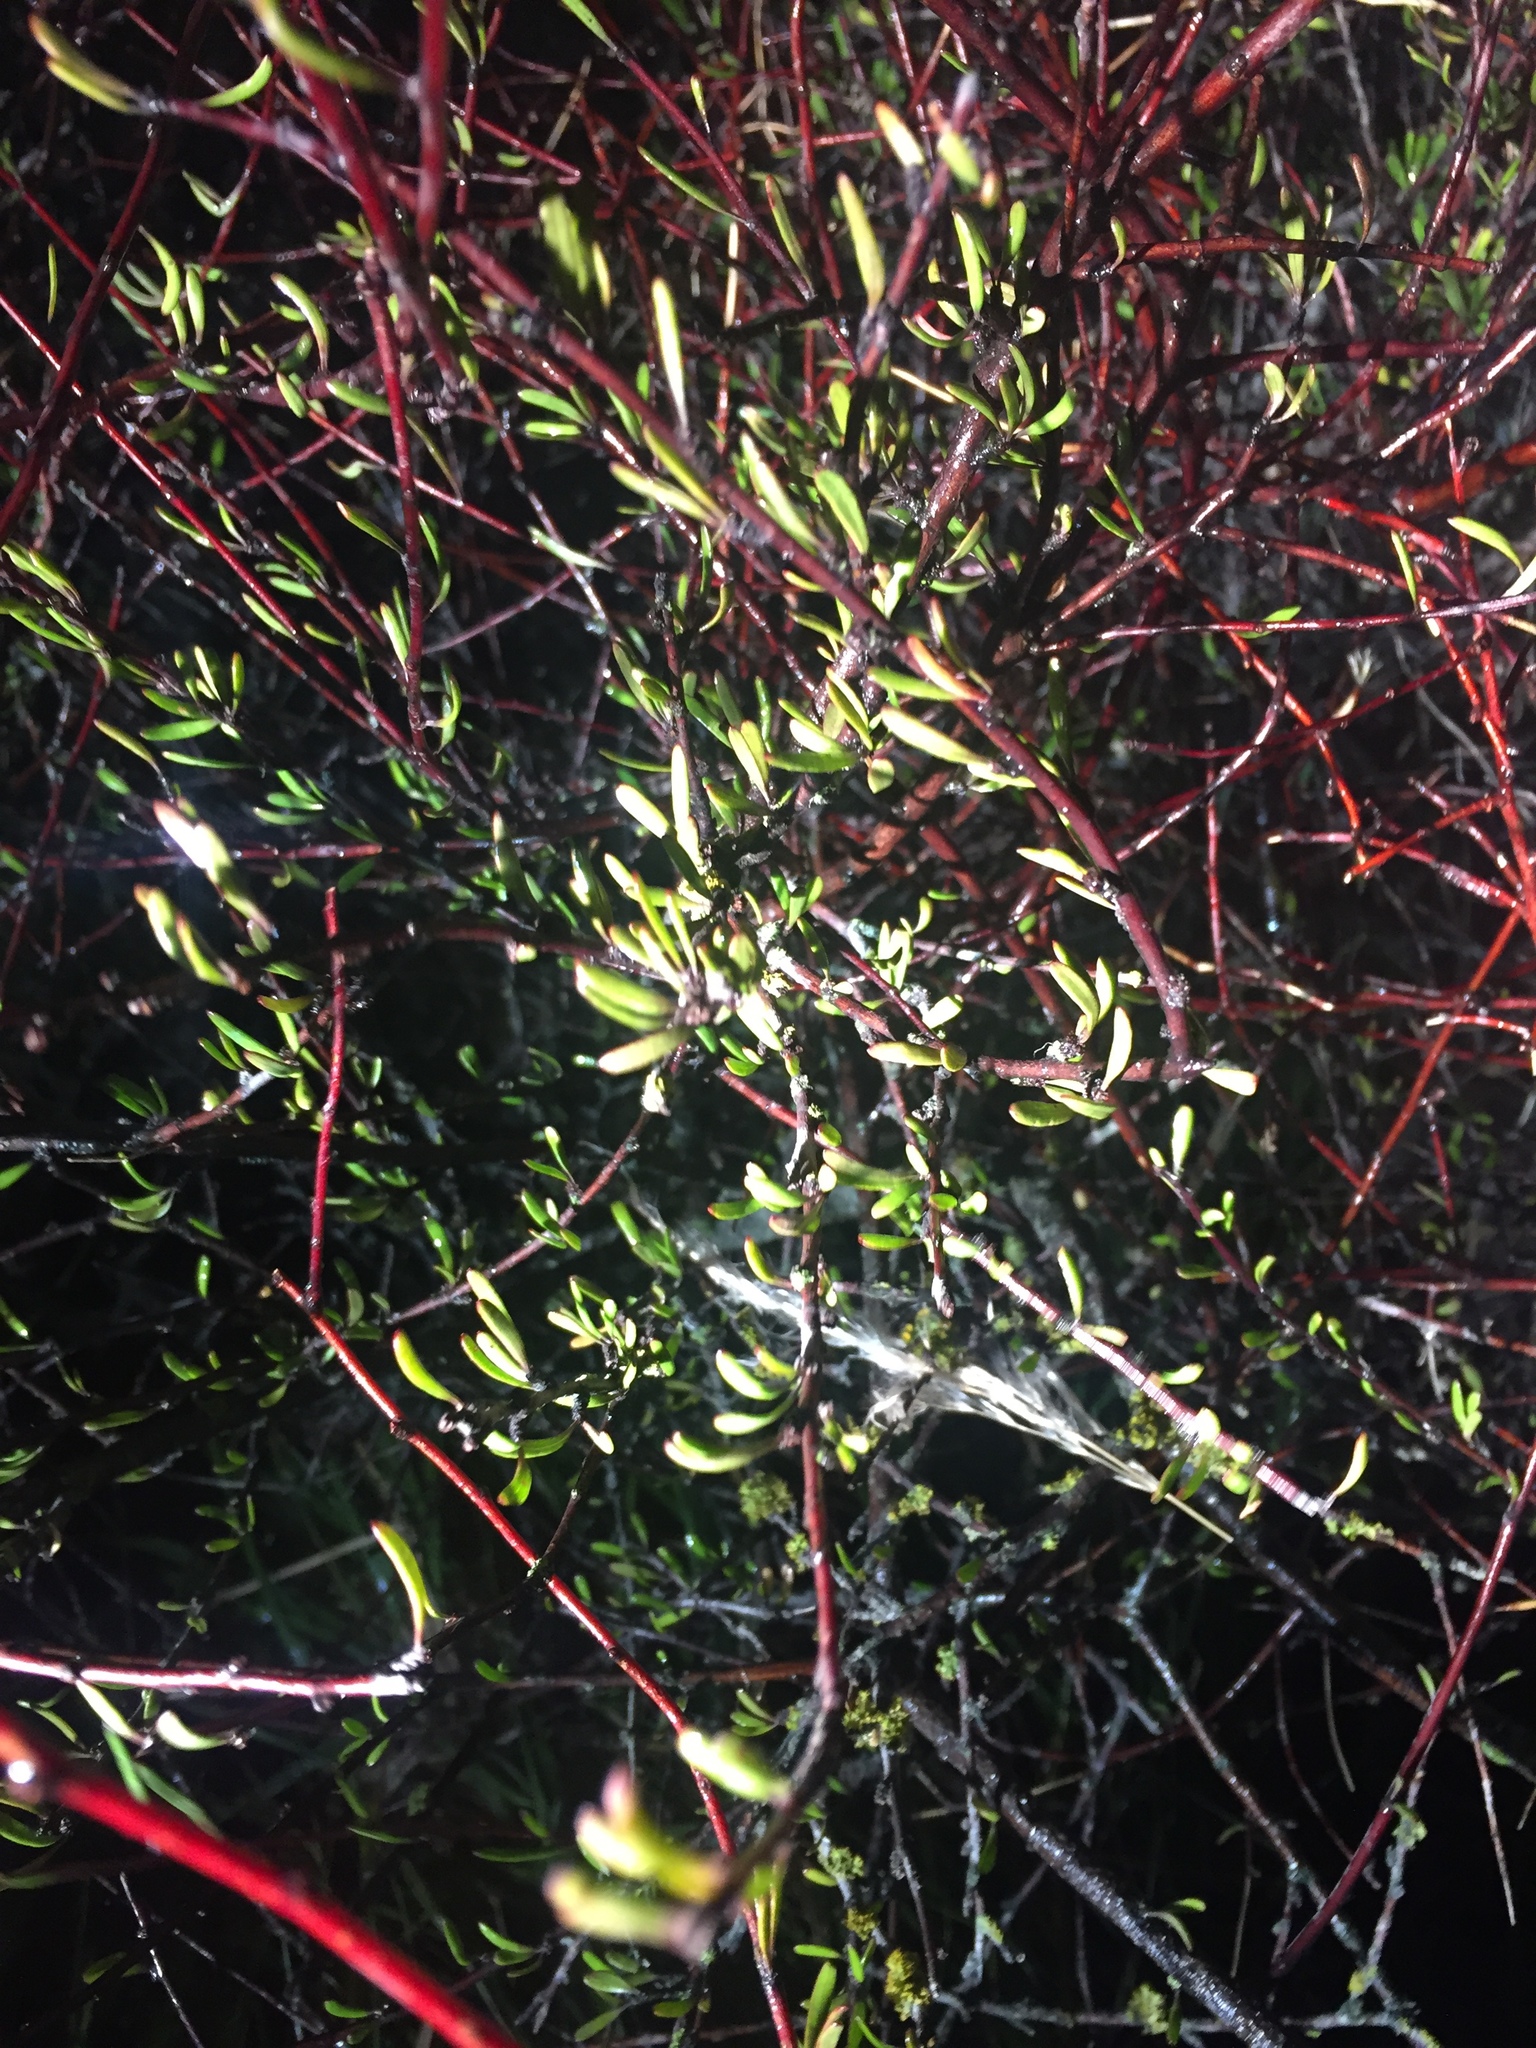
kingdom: Plantae
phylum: Tracheophyta
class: Magnoliopsida
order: Malvales
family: Malvaceae
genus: Plagianthus
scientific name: Plagianthus divaricatus
